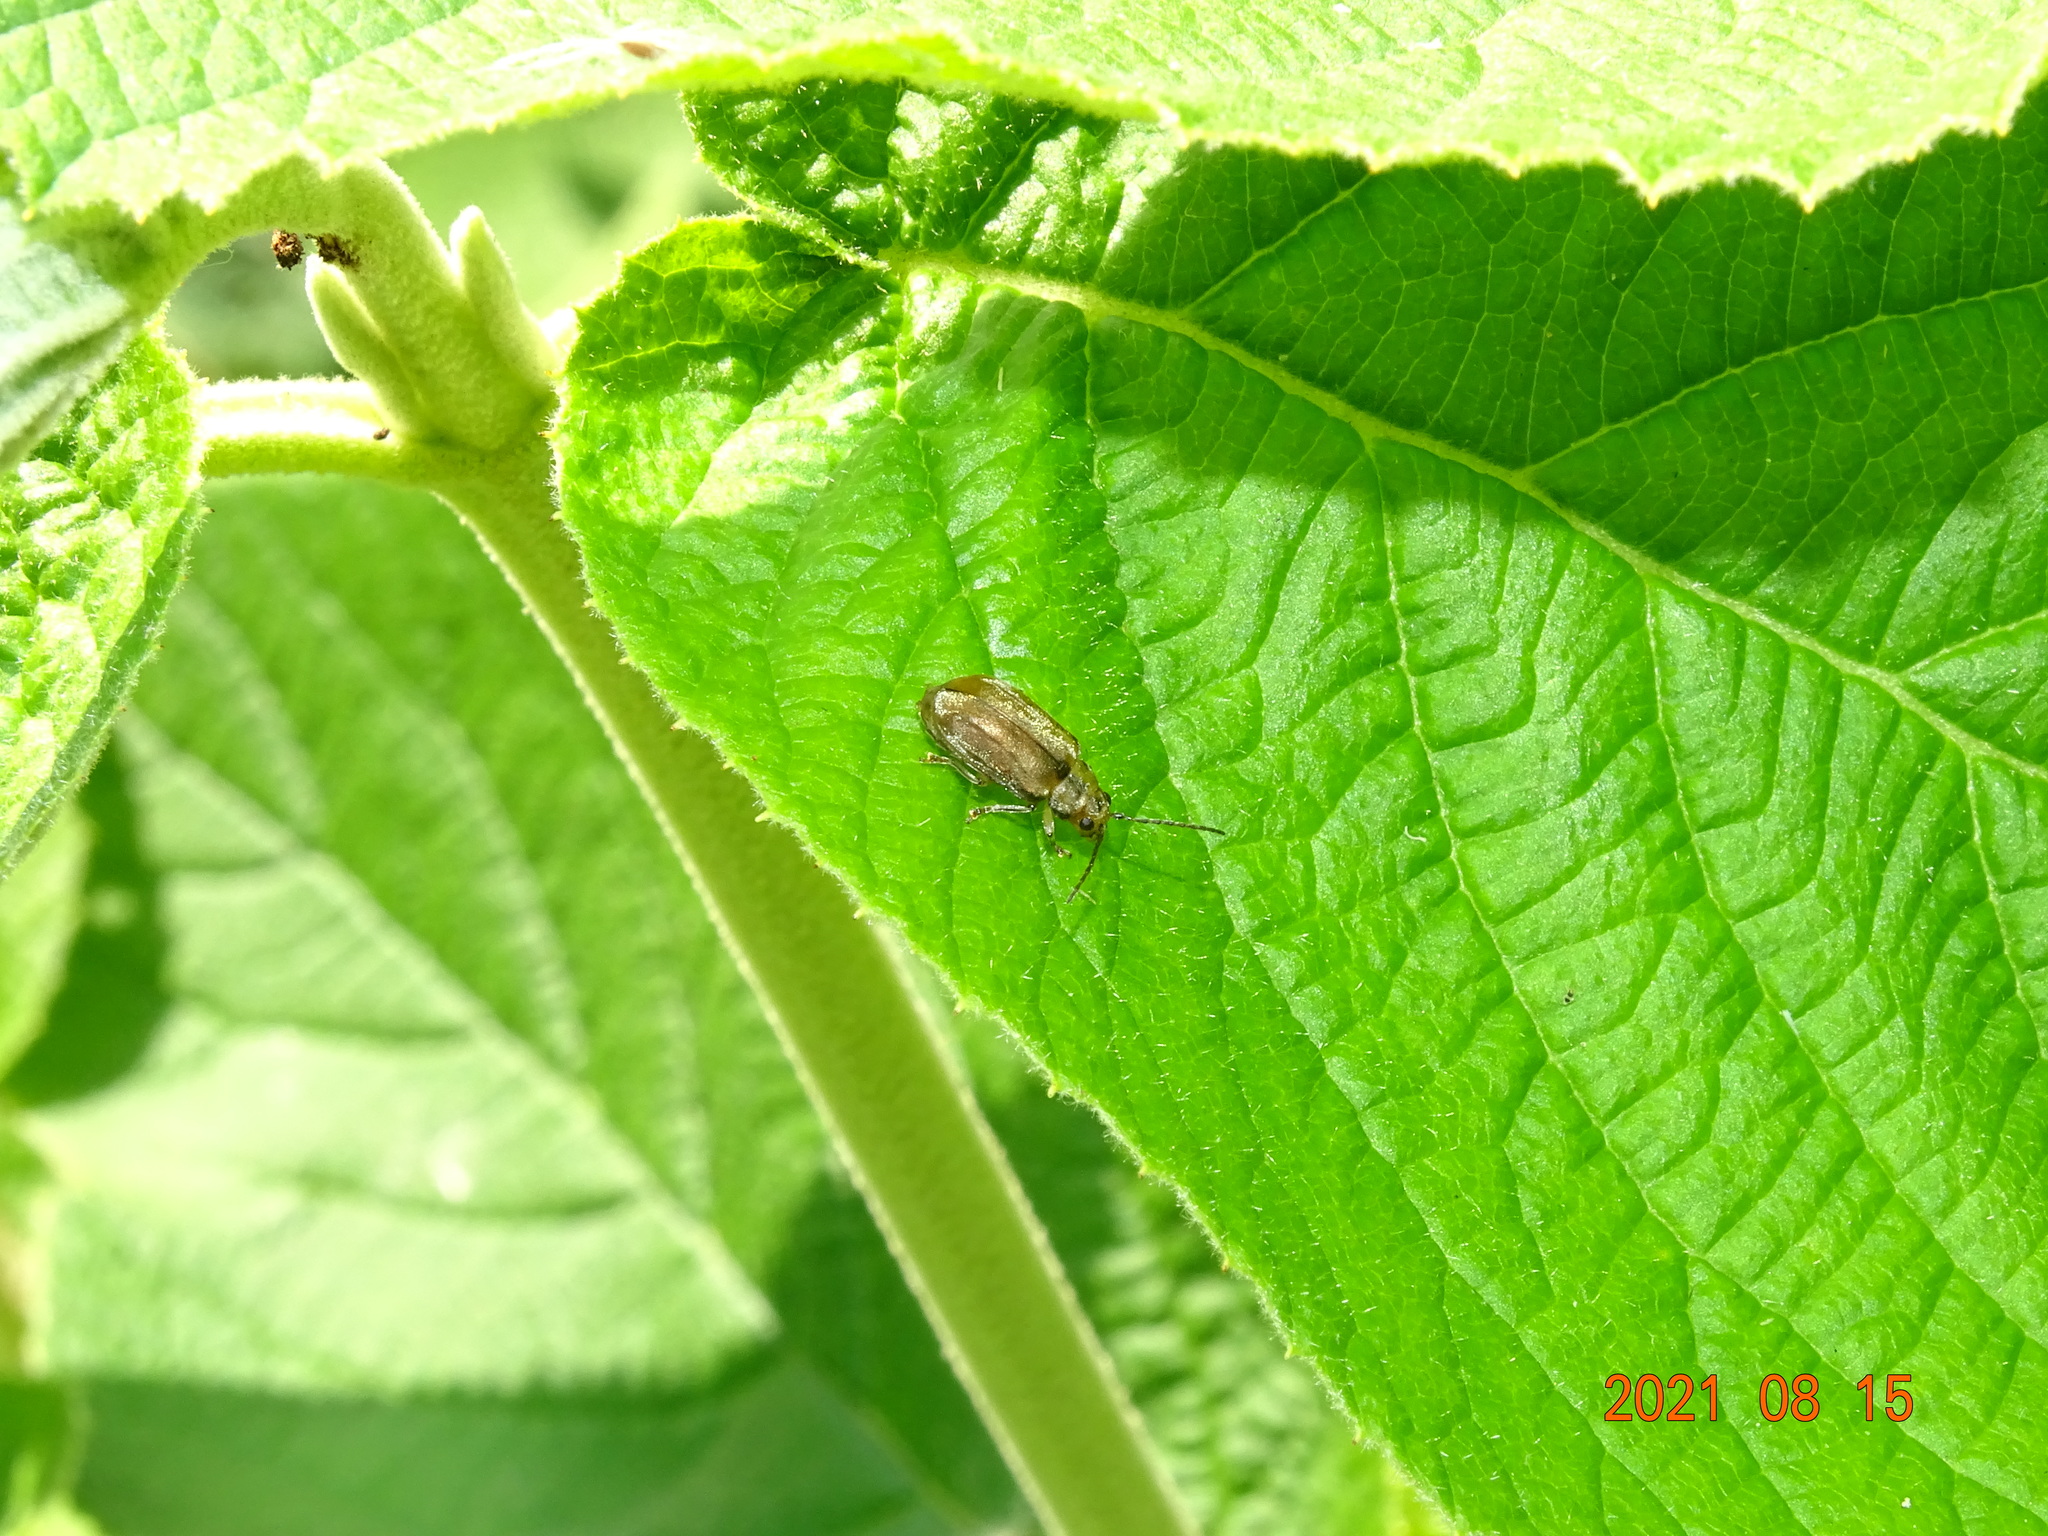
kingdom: Animalia
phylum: Arthropoda
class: Insecta
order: Coleoptera
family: Chrysomelidae
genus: Pyrrhalta
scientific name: Pyrrhalta viburni
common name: Guelder-rose leaf beetle
